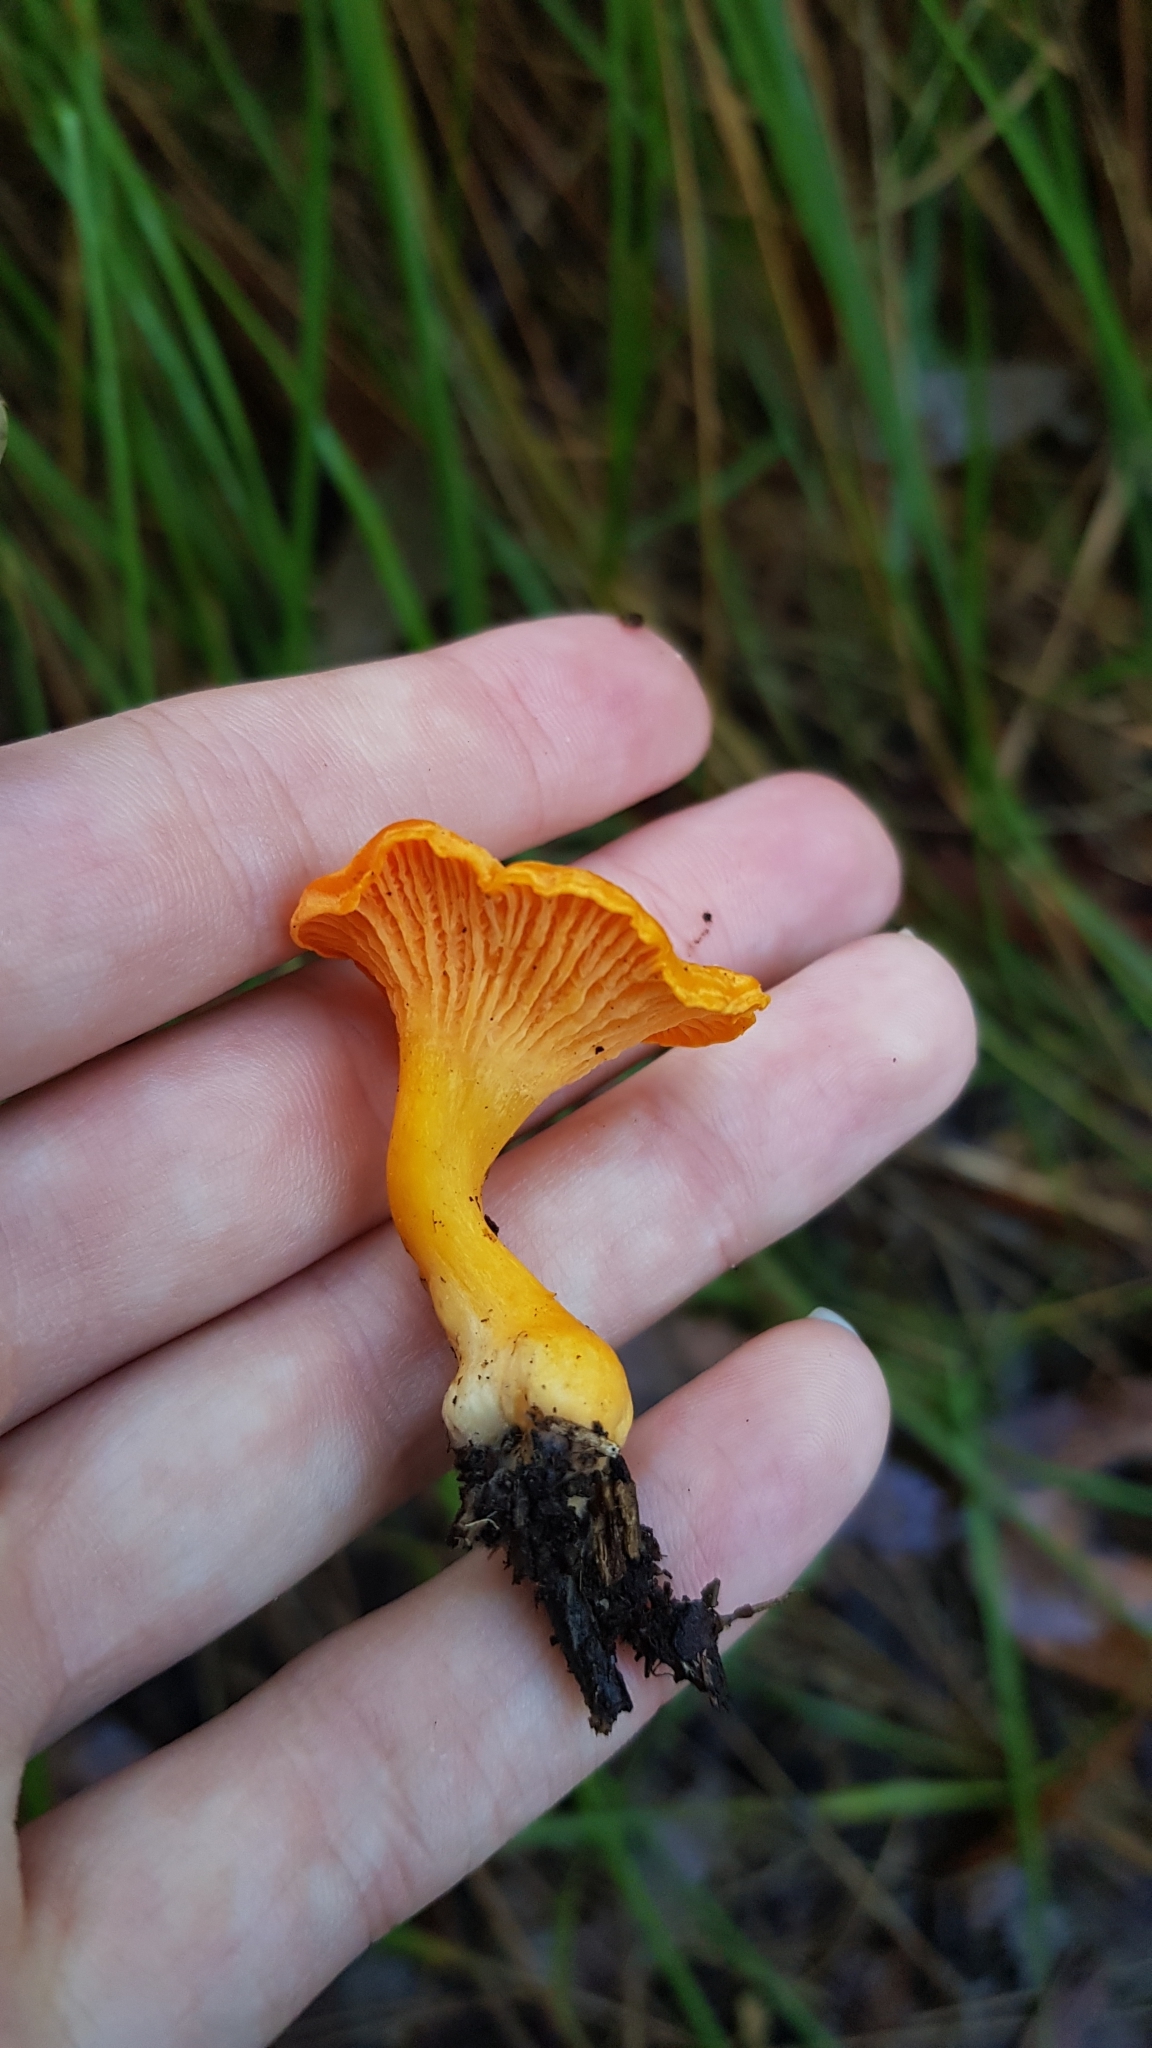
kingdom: Fungi
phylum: Basidiomycota
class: Agaricomycetes
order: Cantharellales
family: Hydnaceae
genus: Cantharellus
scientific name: Cantharellus
